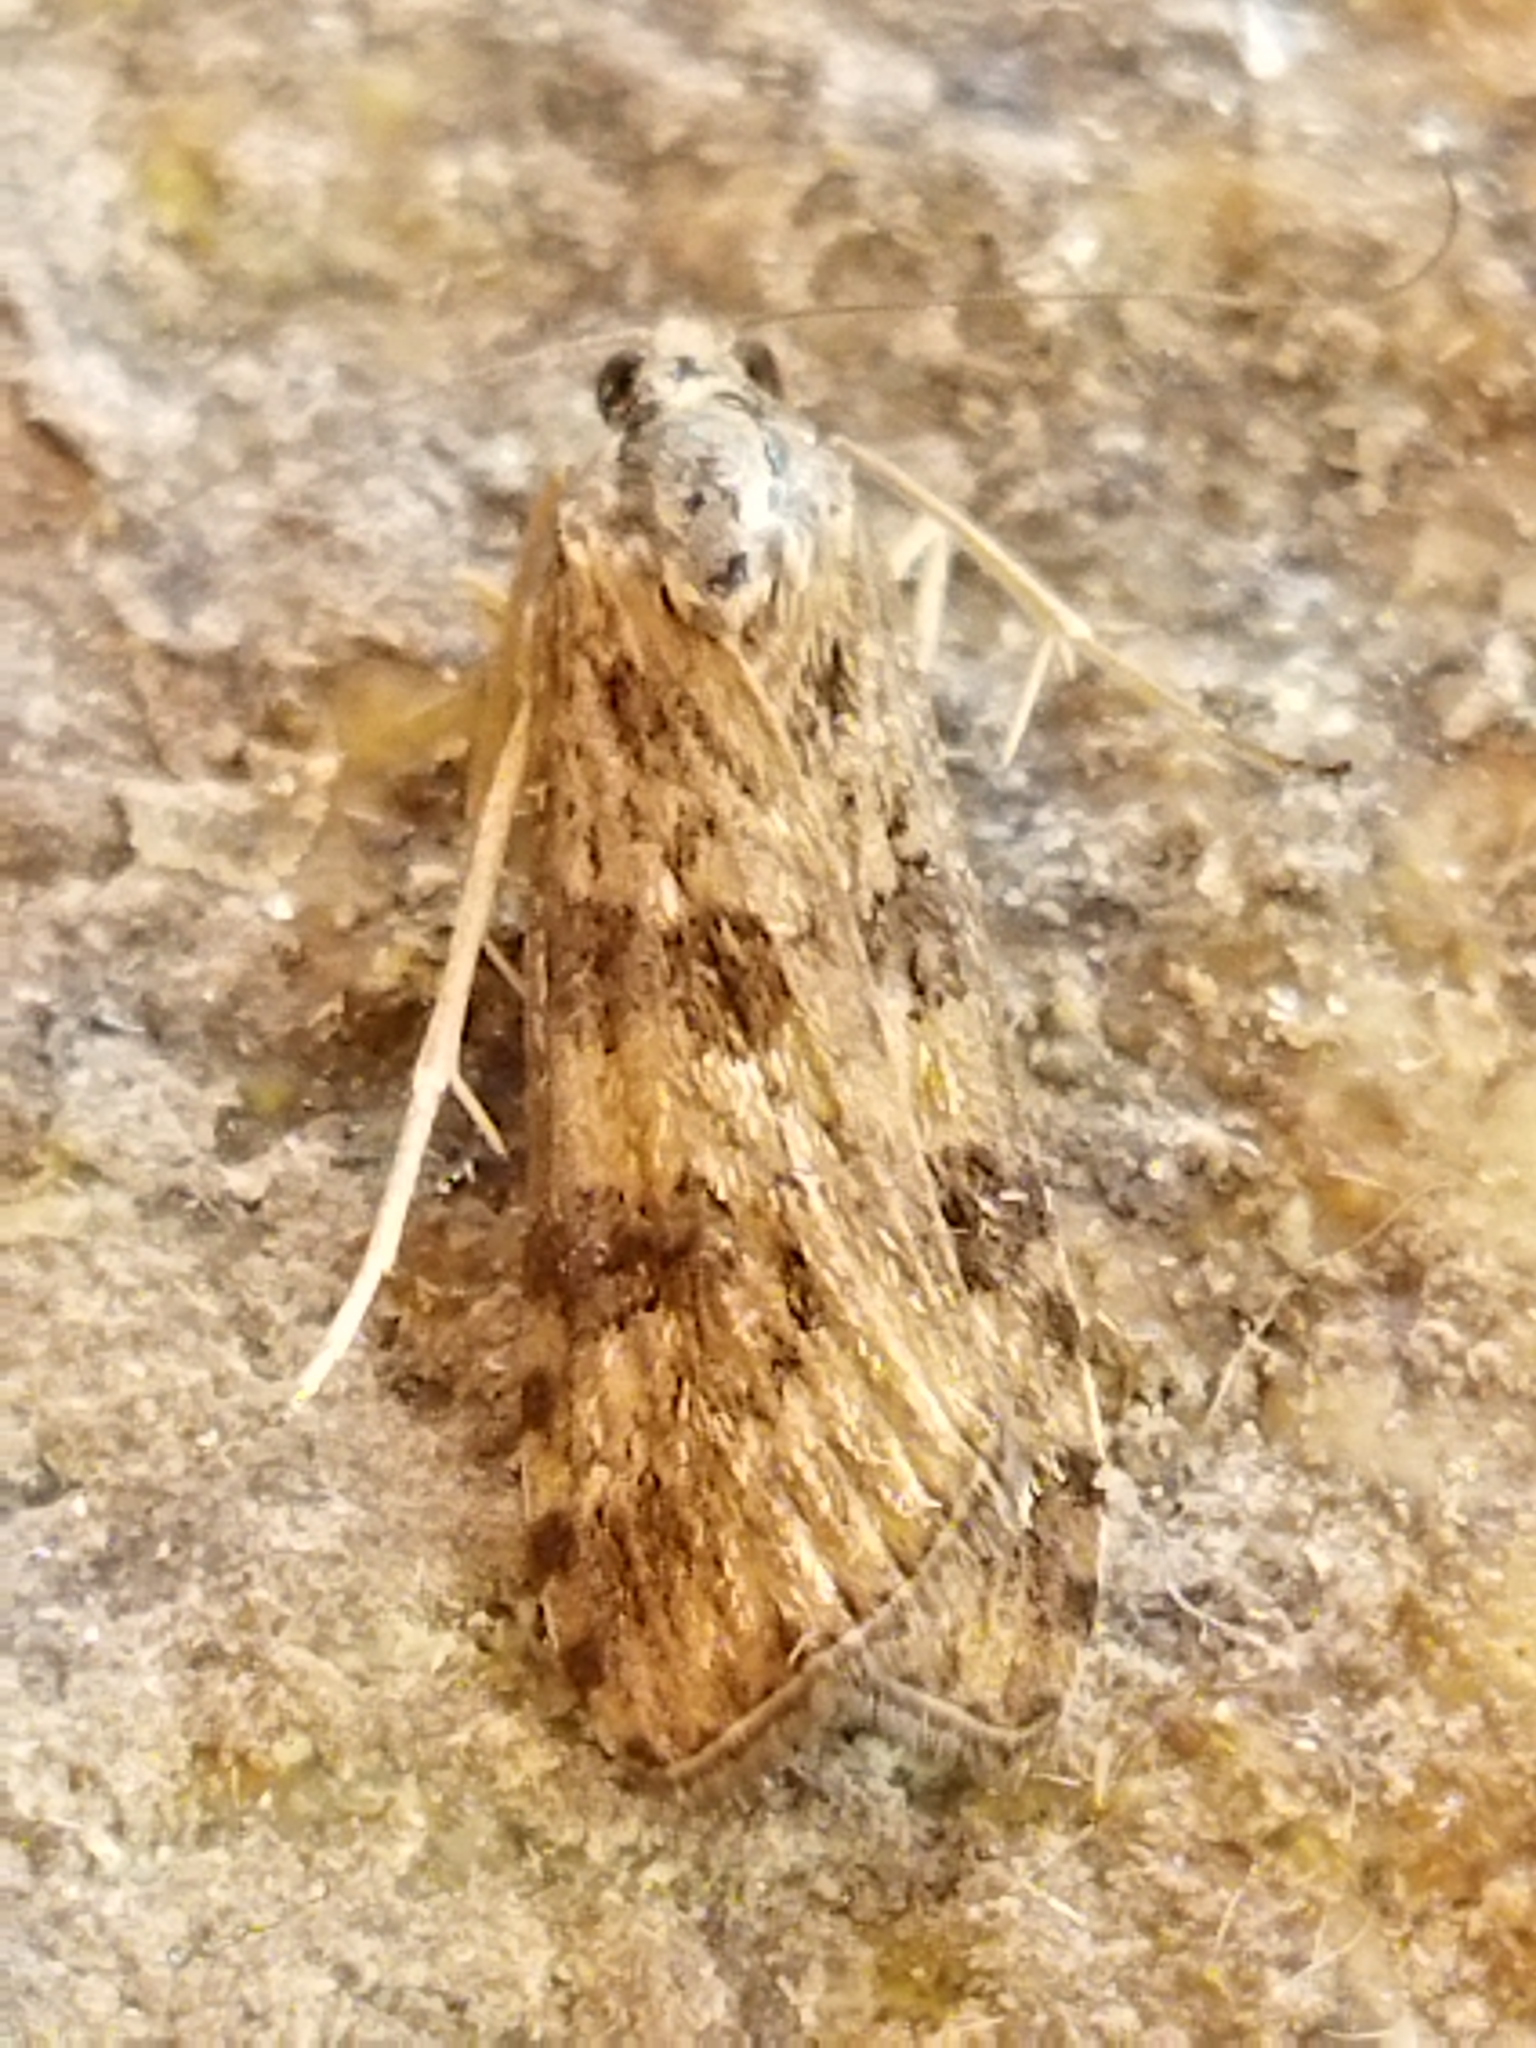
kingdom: Animalia
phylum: Arthropoda
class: Insecta
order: Lepidoptera
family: Crambidae
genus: Nomophila
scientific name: Nomophila noctuella
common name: Rush veneer
